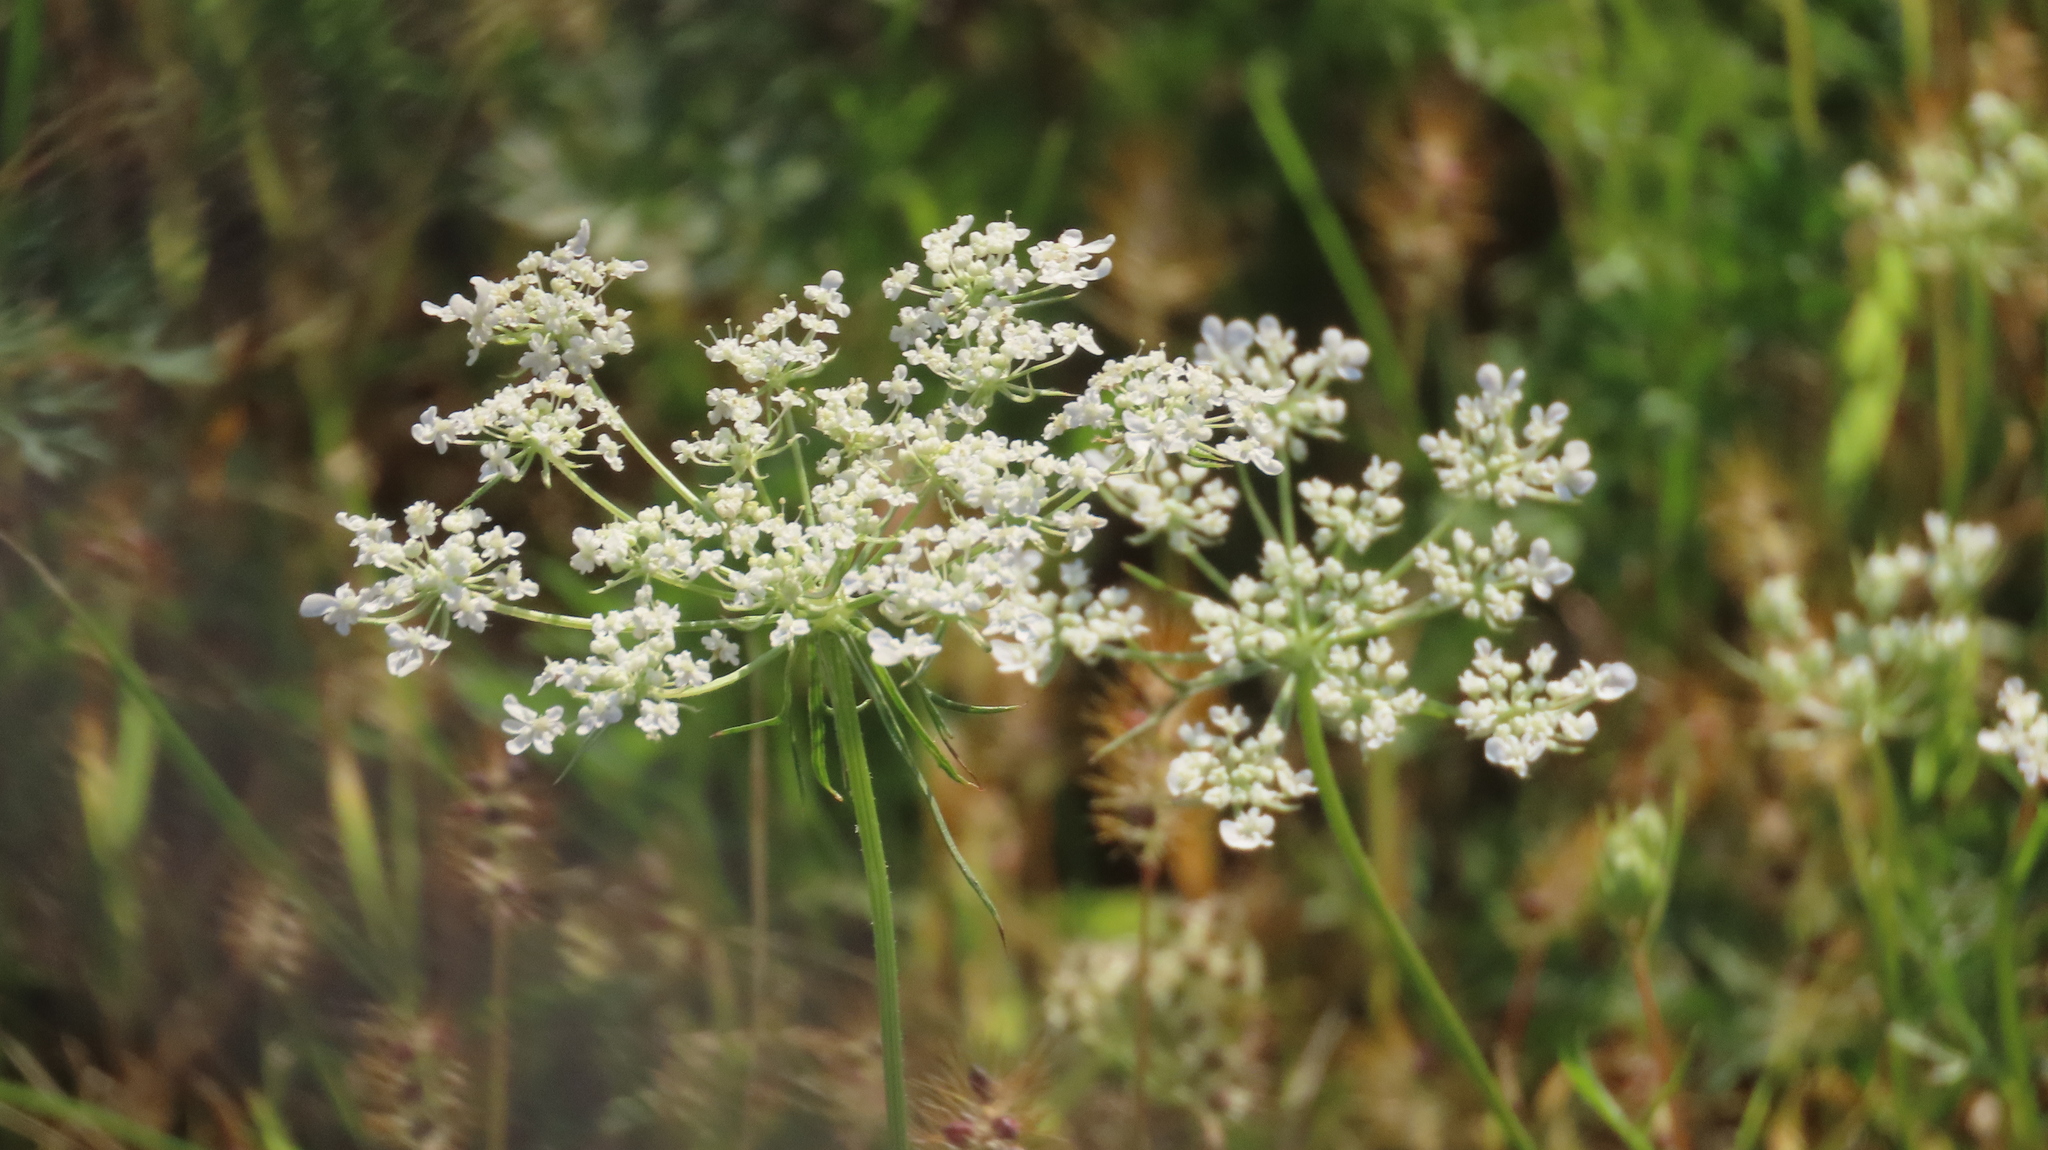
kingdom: Plantae
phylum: Tracheophyta
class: Magnoliopsida
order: Apiales
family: Apiaceae
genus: Daucus
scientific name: Daucus carota
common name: Wild carrot
